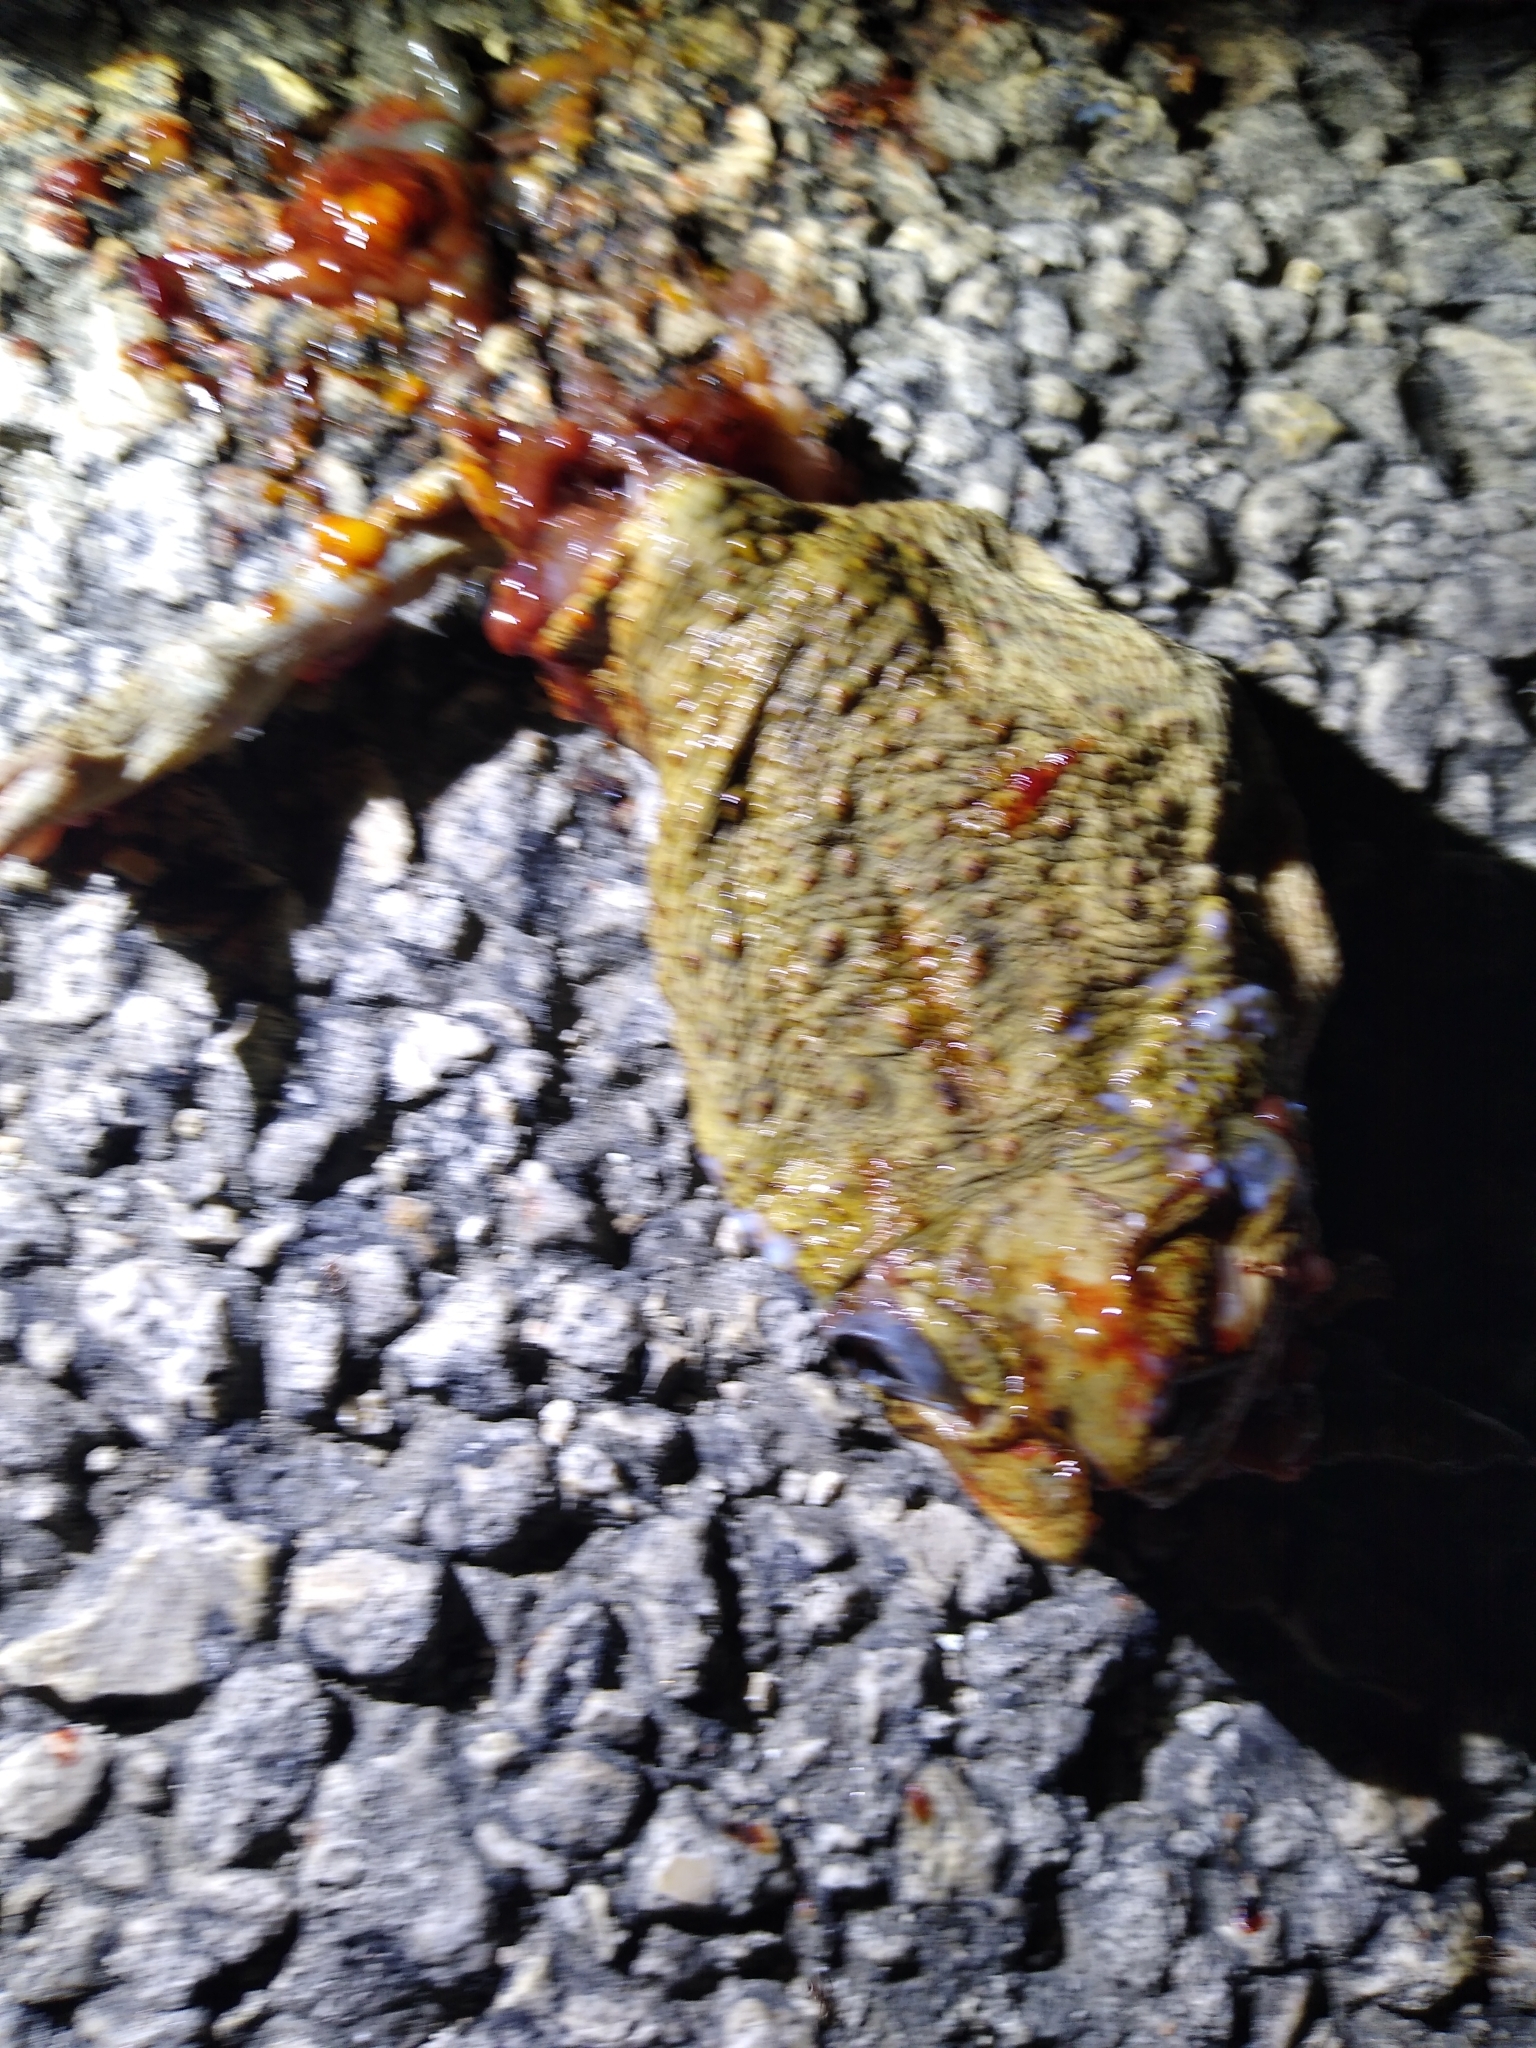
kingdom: Animalia
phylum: Chordata
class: Amphibia
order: Anura
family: Bufonidae
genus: Rhinella
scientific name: Rhinella marina
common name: Cane toad
